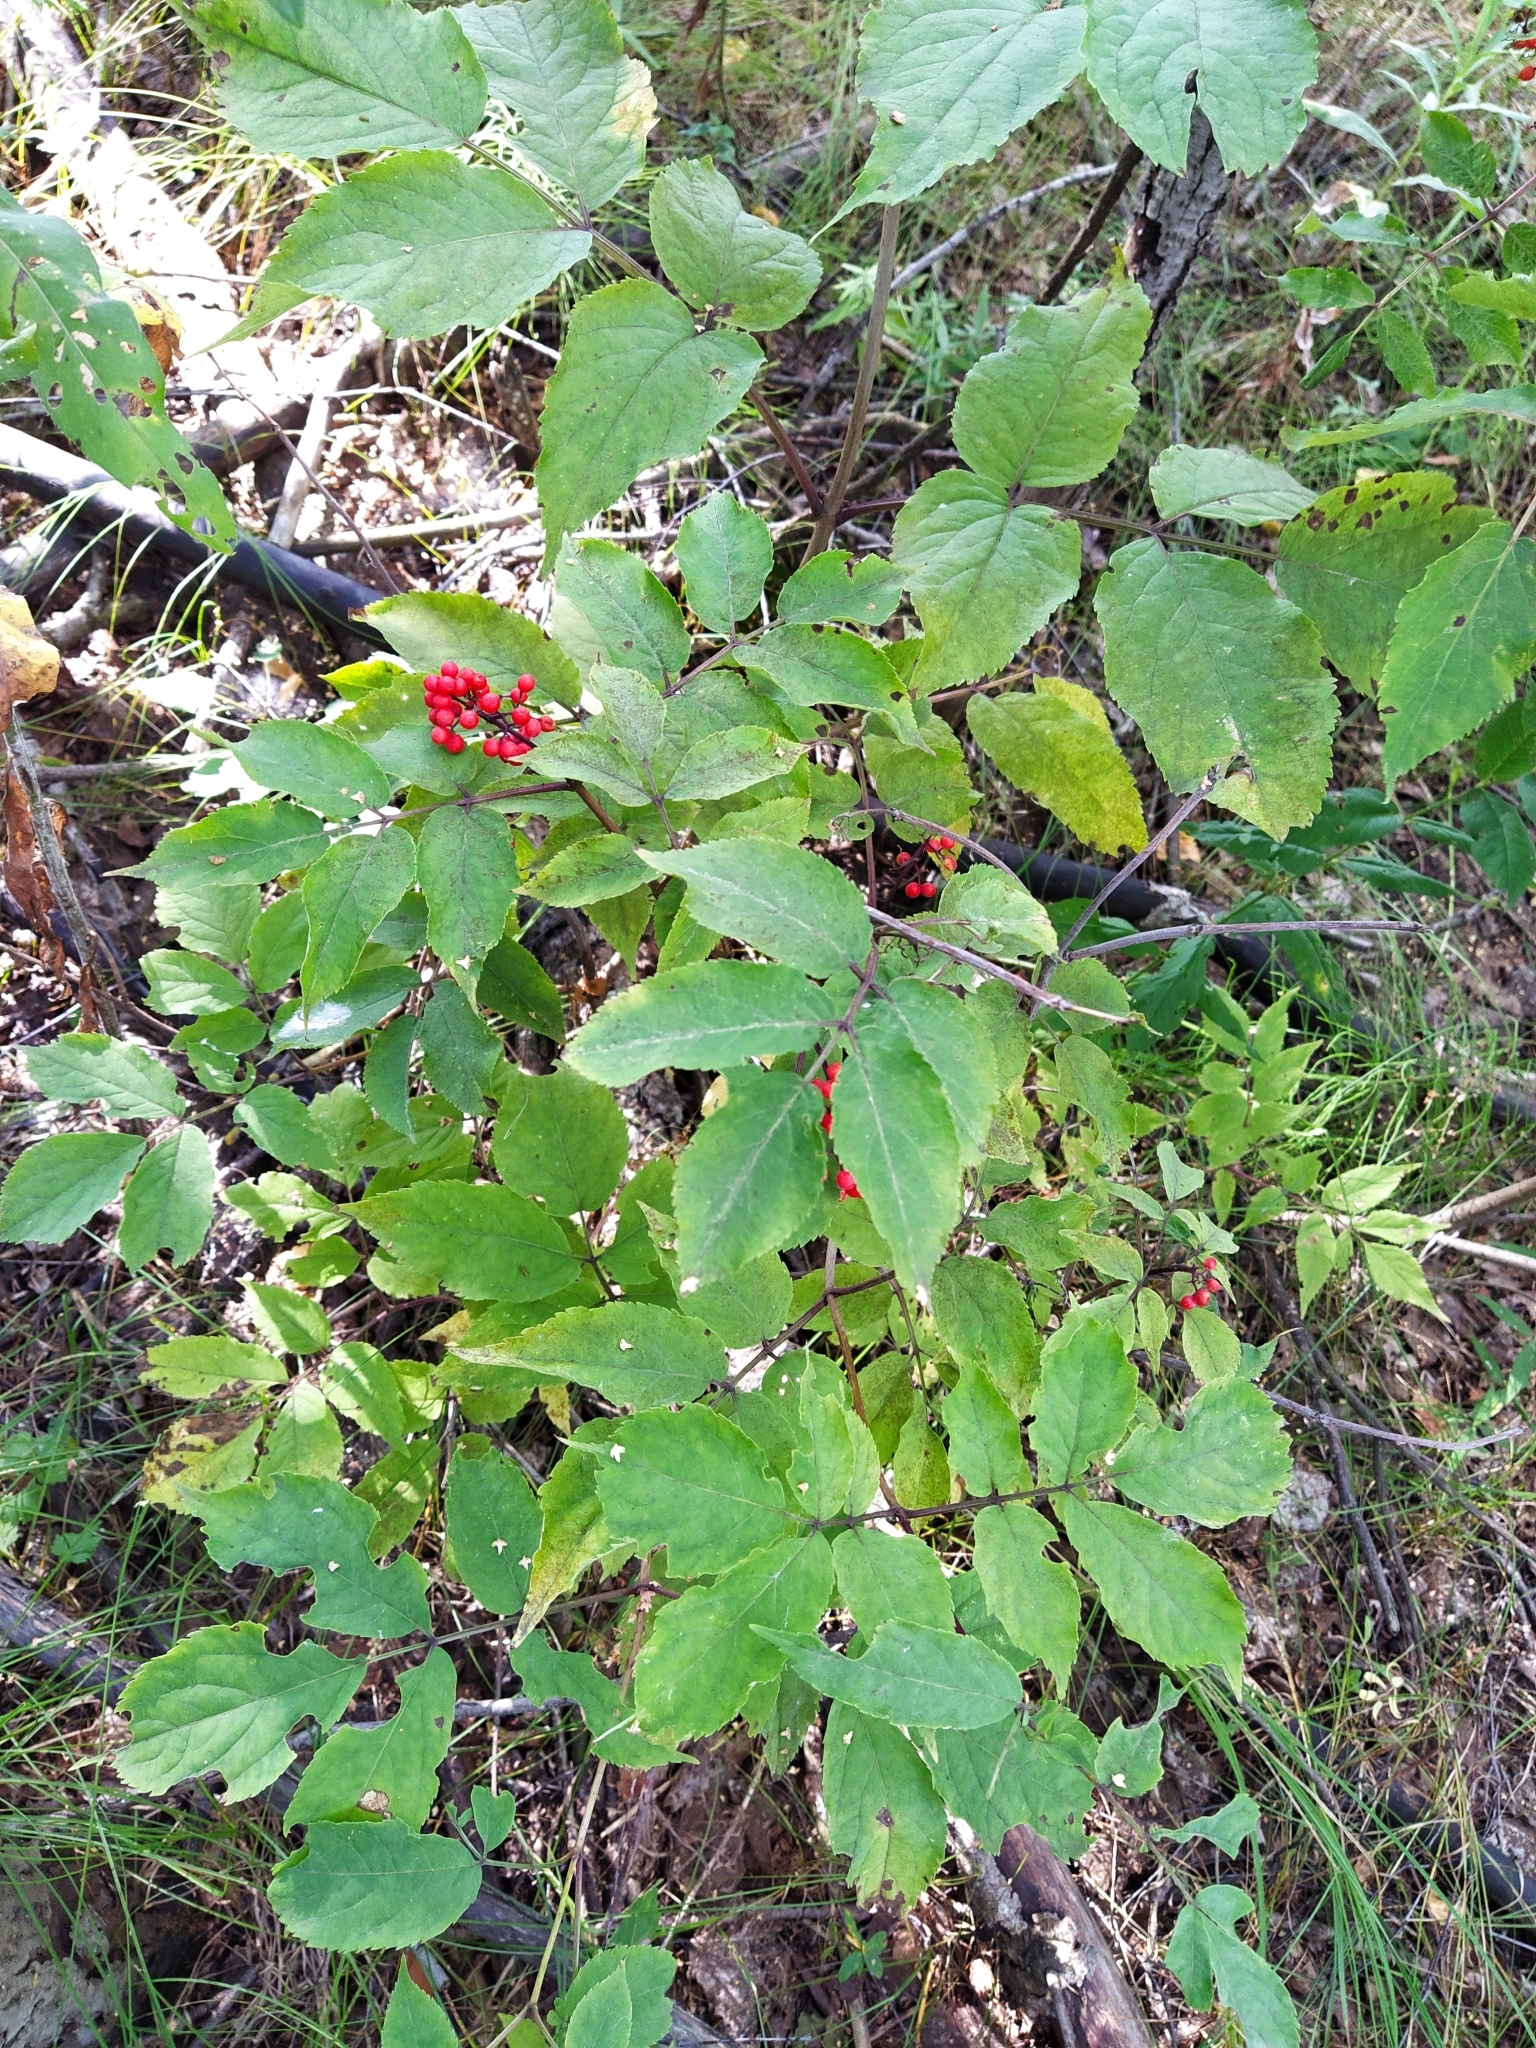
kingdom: Plantae
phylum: Tracheophyta
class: Magnoliopsida
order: Dipsacales
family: Viburnaceae
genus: Sambucus
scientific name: Sambucus racemosa
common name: Red-berried elder
